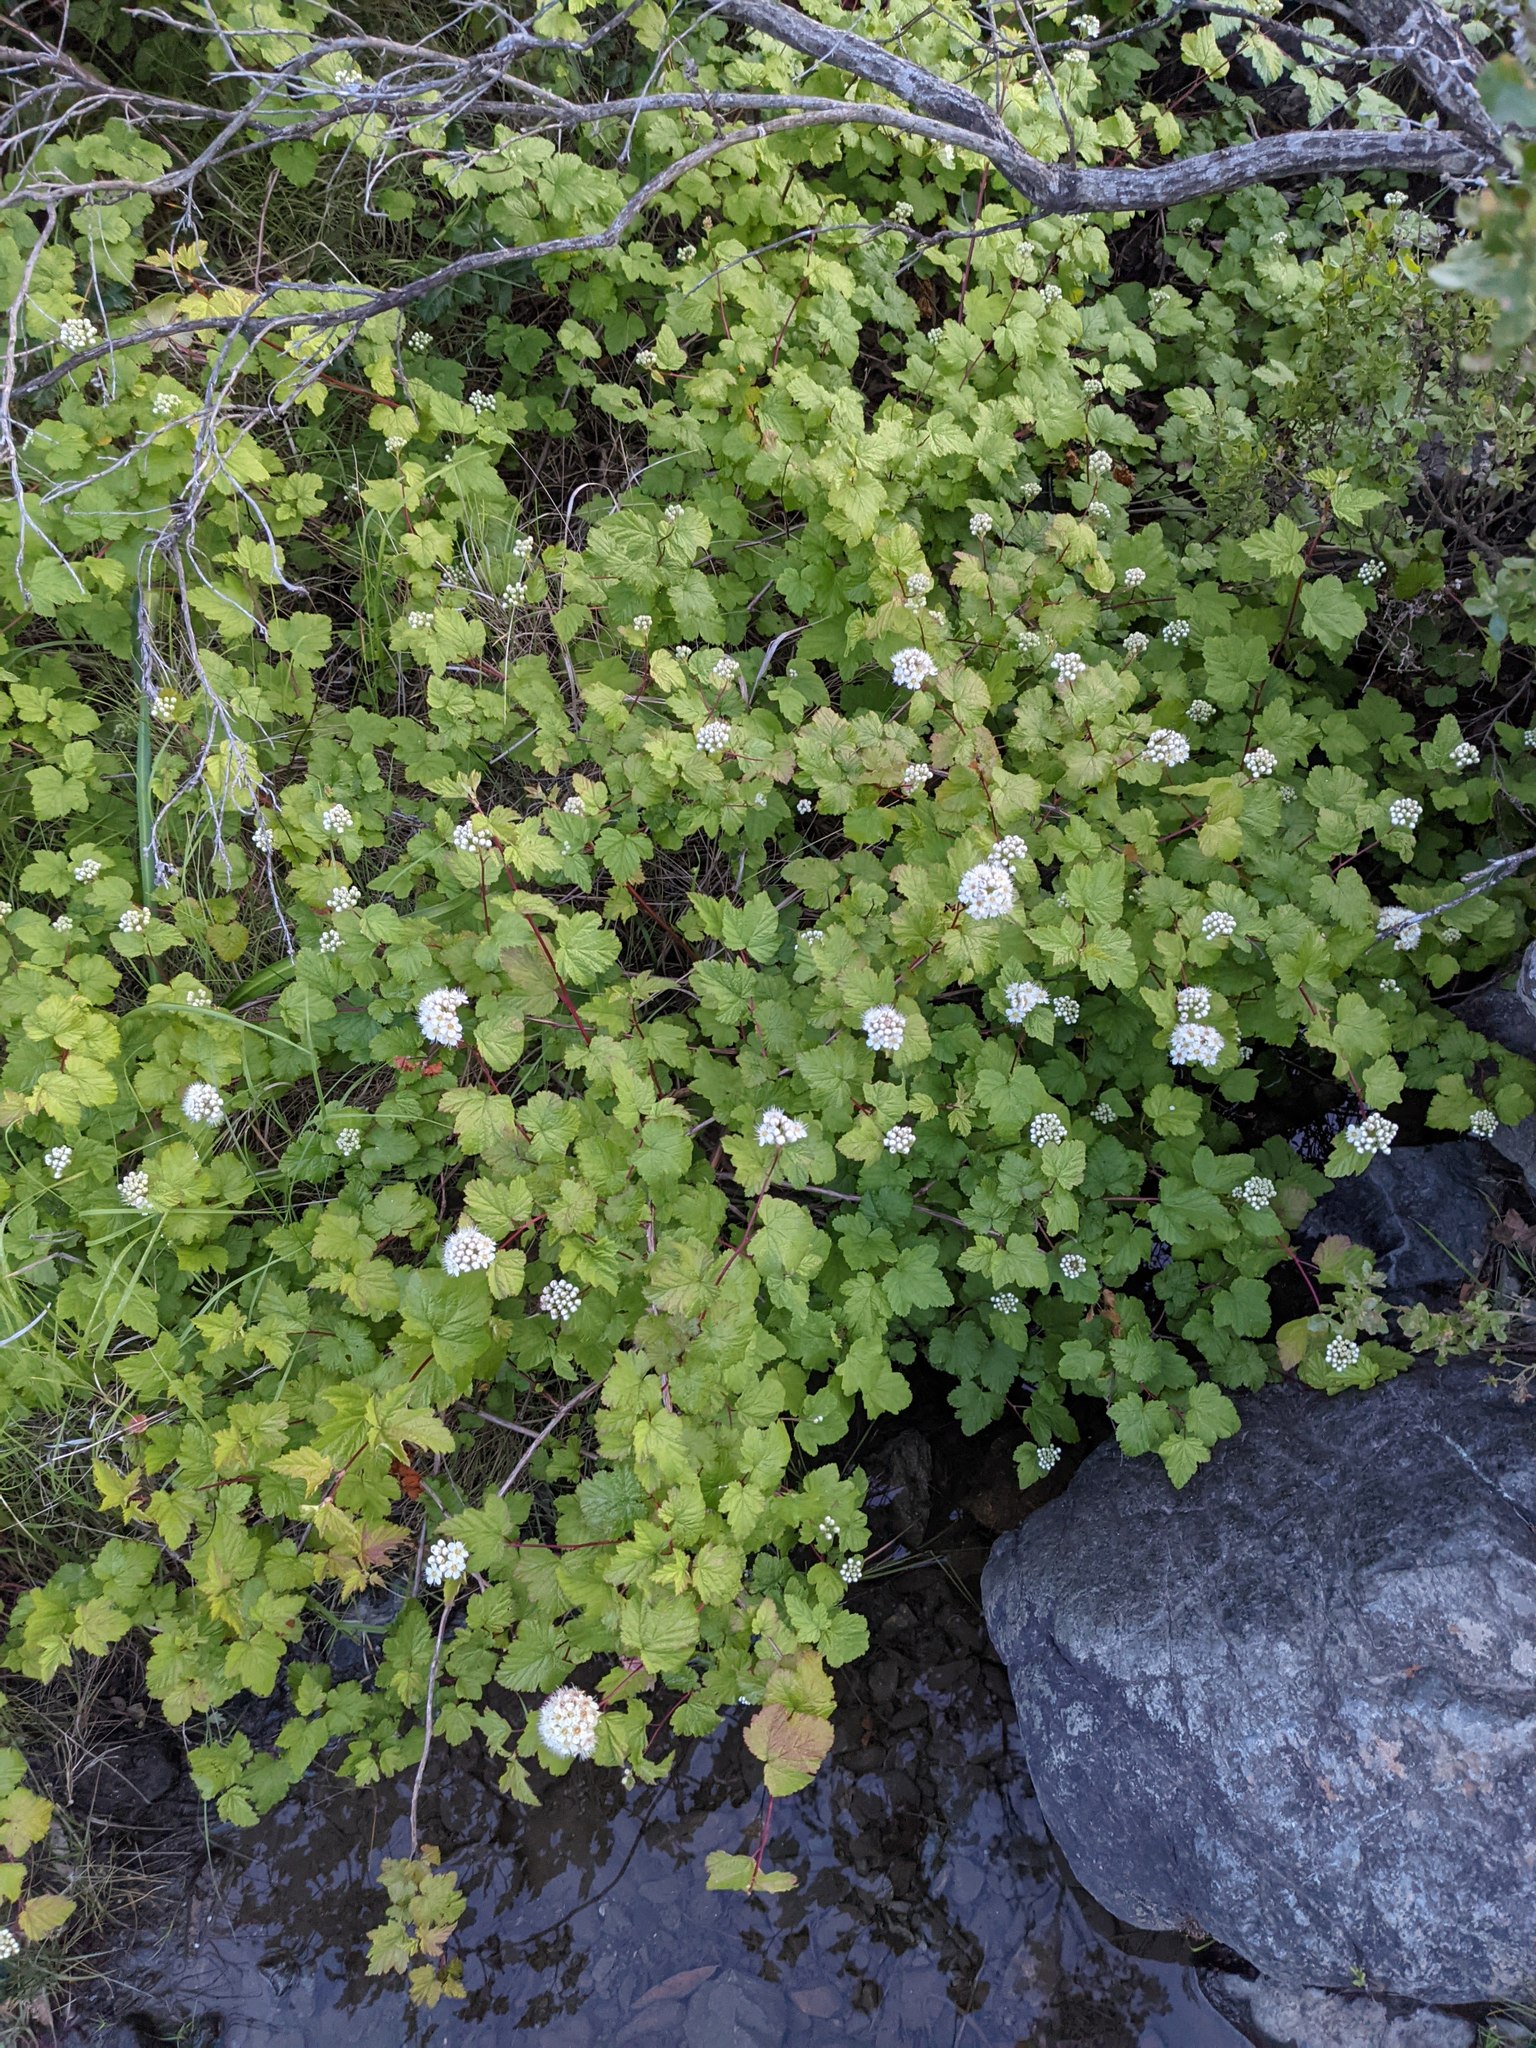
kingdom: Plantae
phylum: Tracheophyta
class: Magnoliopsida
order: Rosales
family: Rosaceae
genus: Physocarpus
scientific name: Physocarpus capitatus
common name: Pacific ninebark
